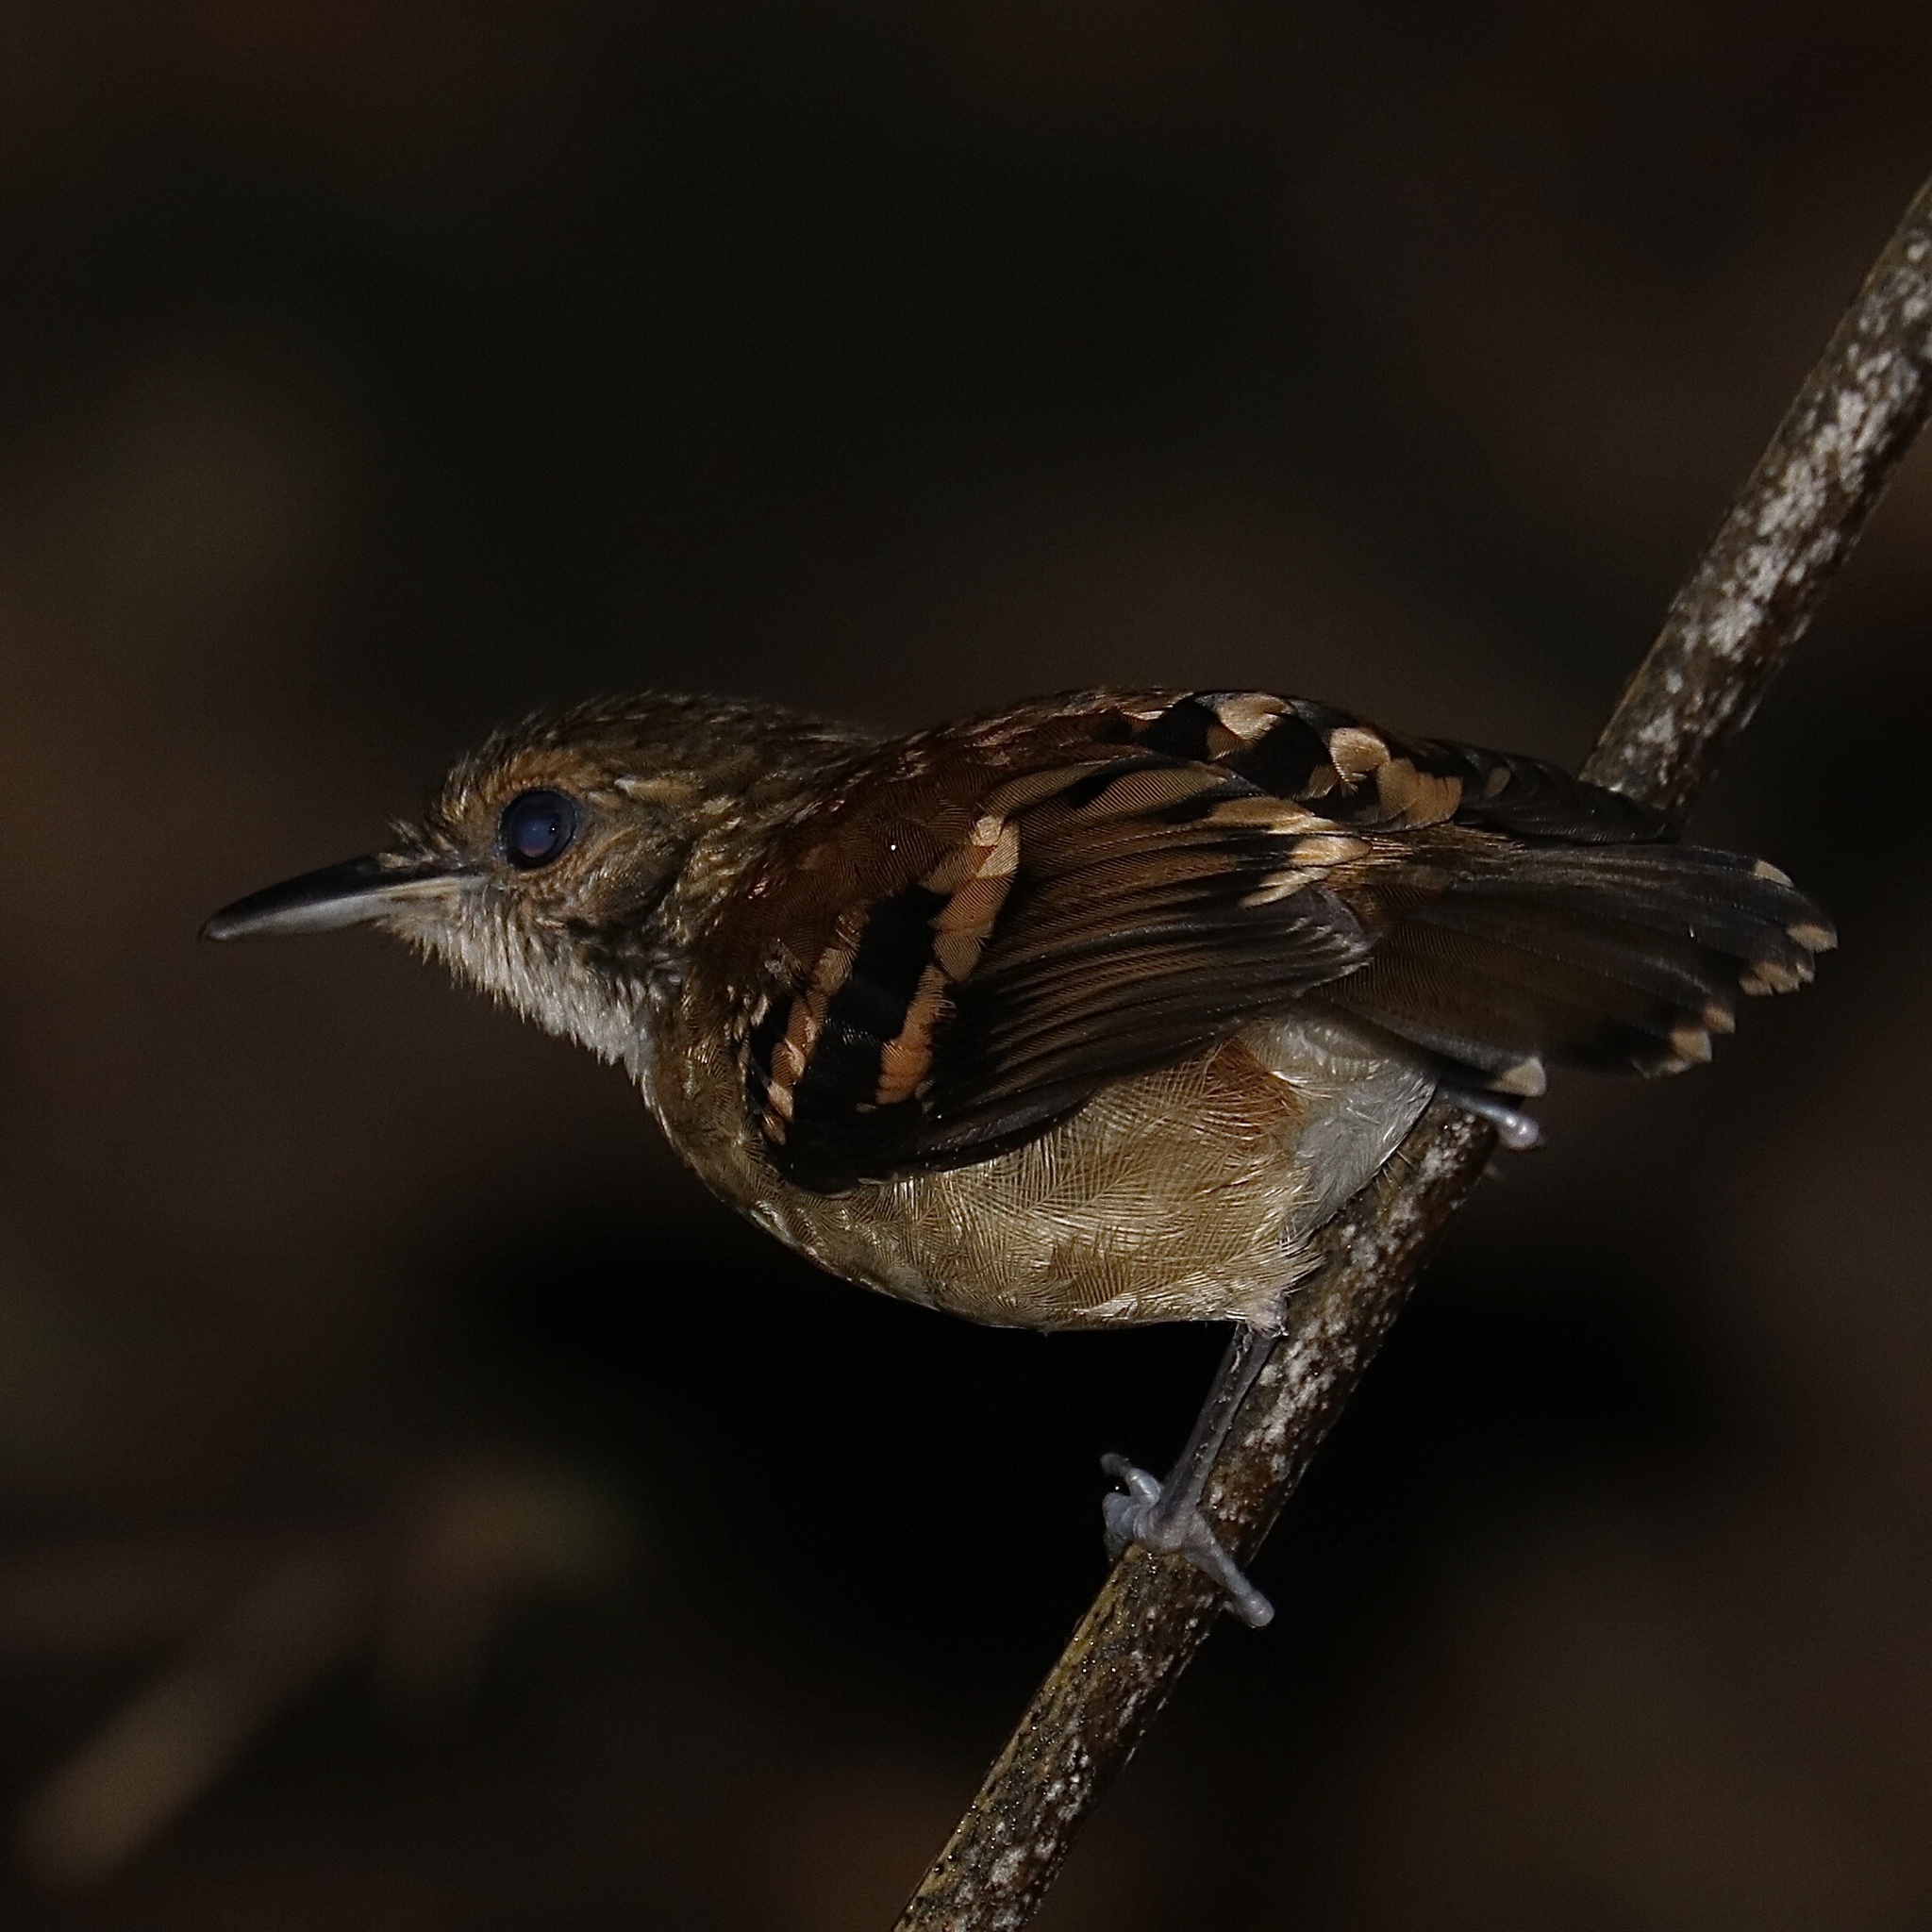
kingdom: Animalia
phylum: Chordata
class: Aves
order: Passeriformes
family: Thamnophilidae
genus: Hylophylax
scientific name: Hylophylax naevioides
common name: Spotted antbird
